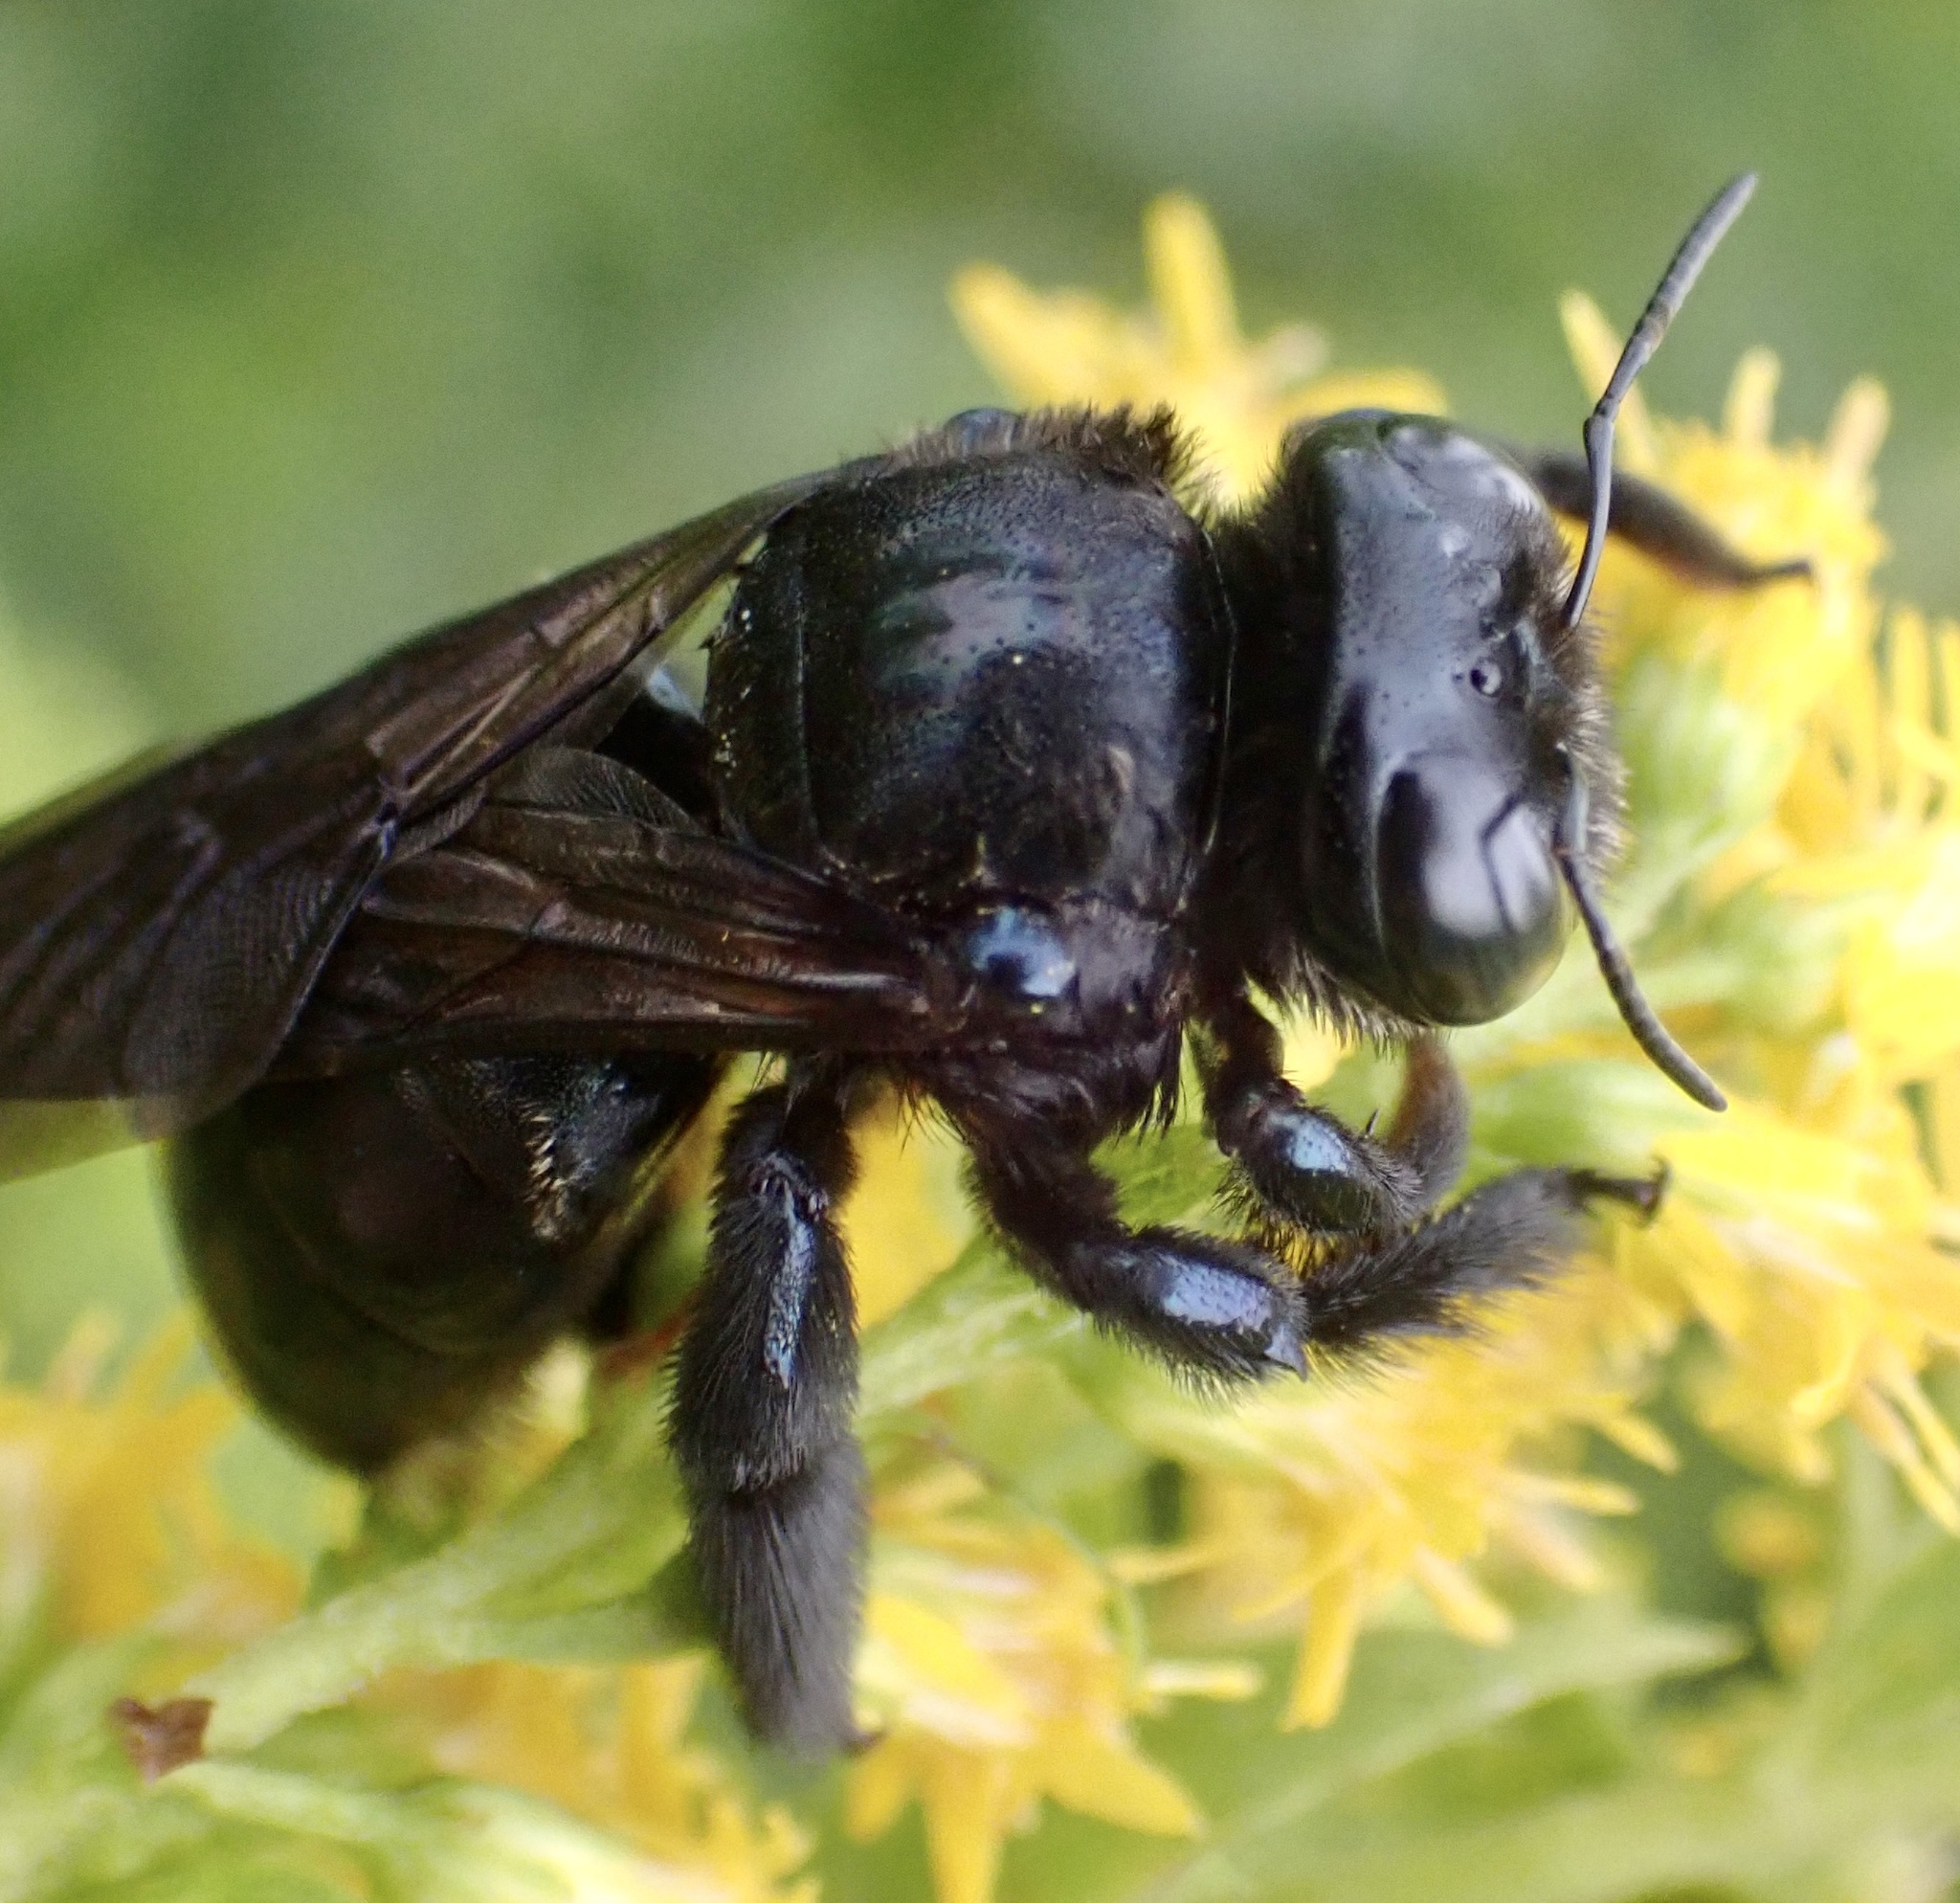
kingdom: Animalia
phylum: Arthropoda
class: Insecta
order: Hymenoptera
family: Apidae
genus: Xylocopa
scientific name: Xylocopa micans
